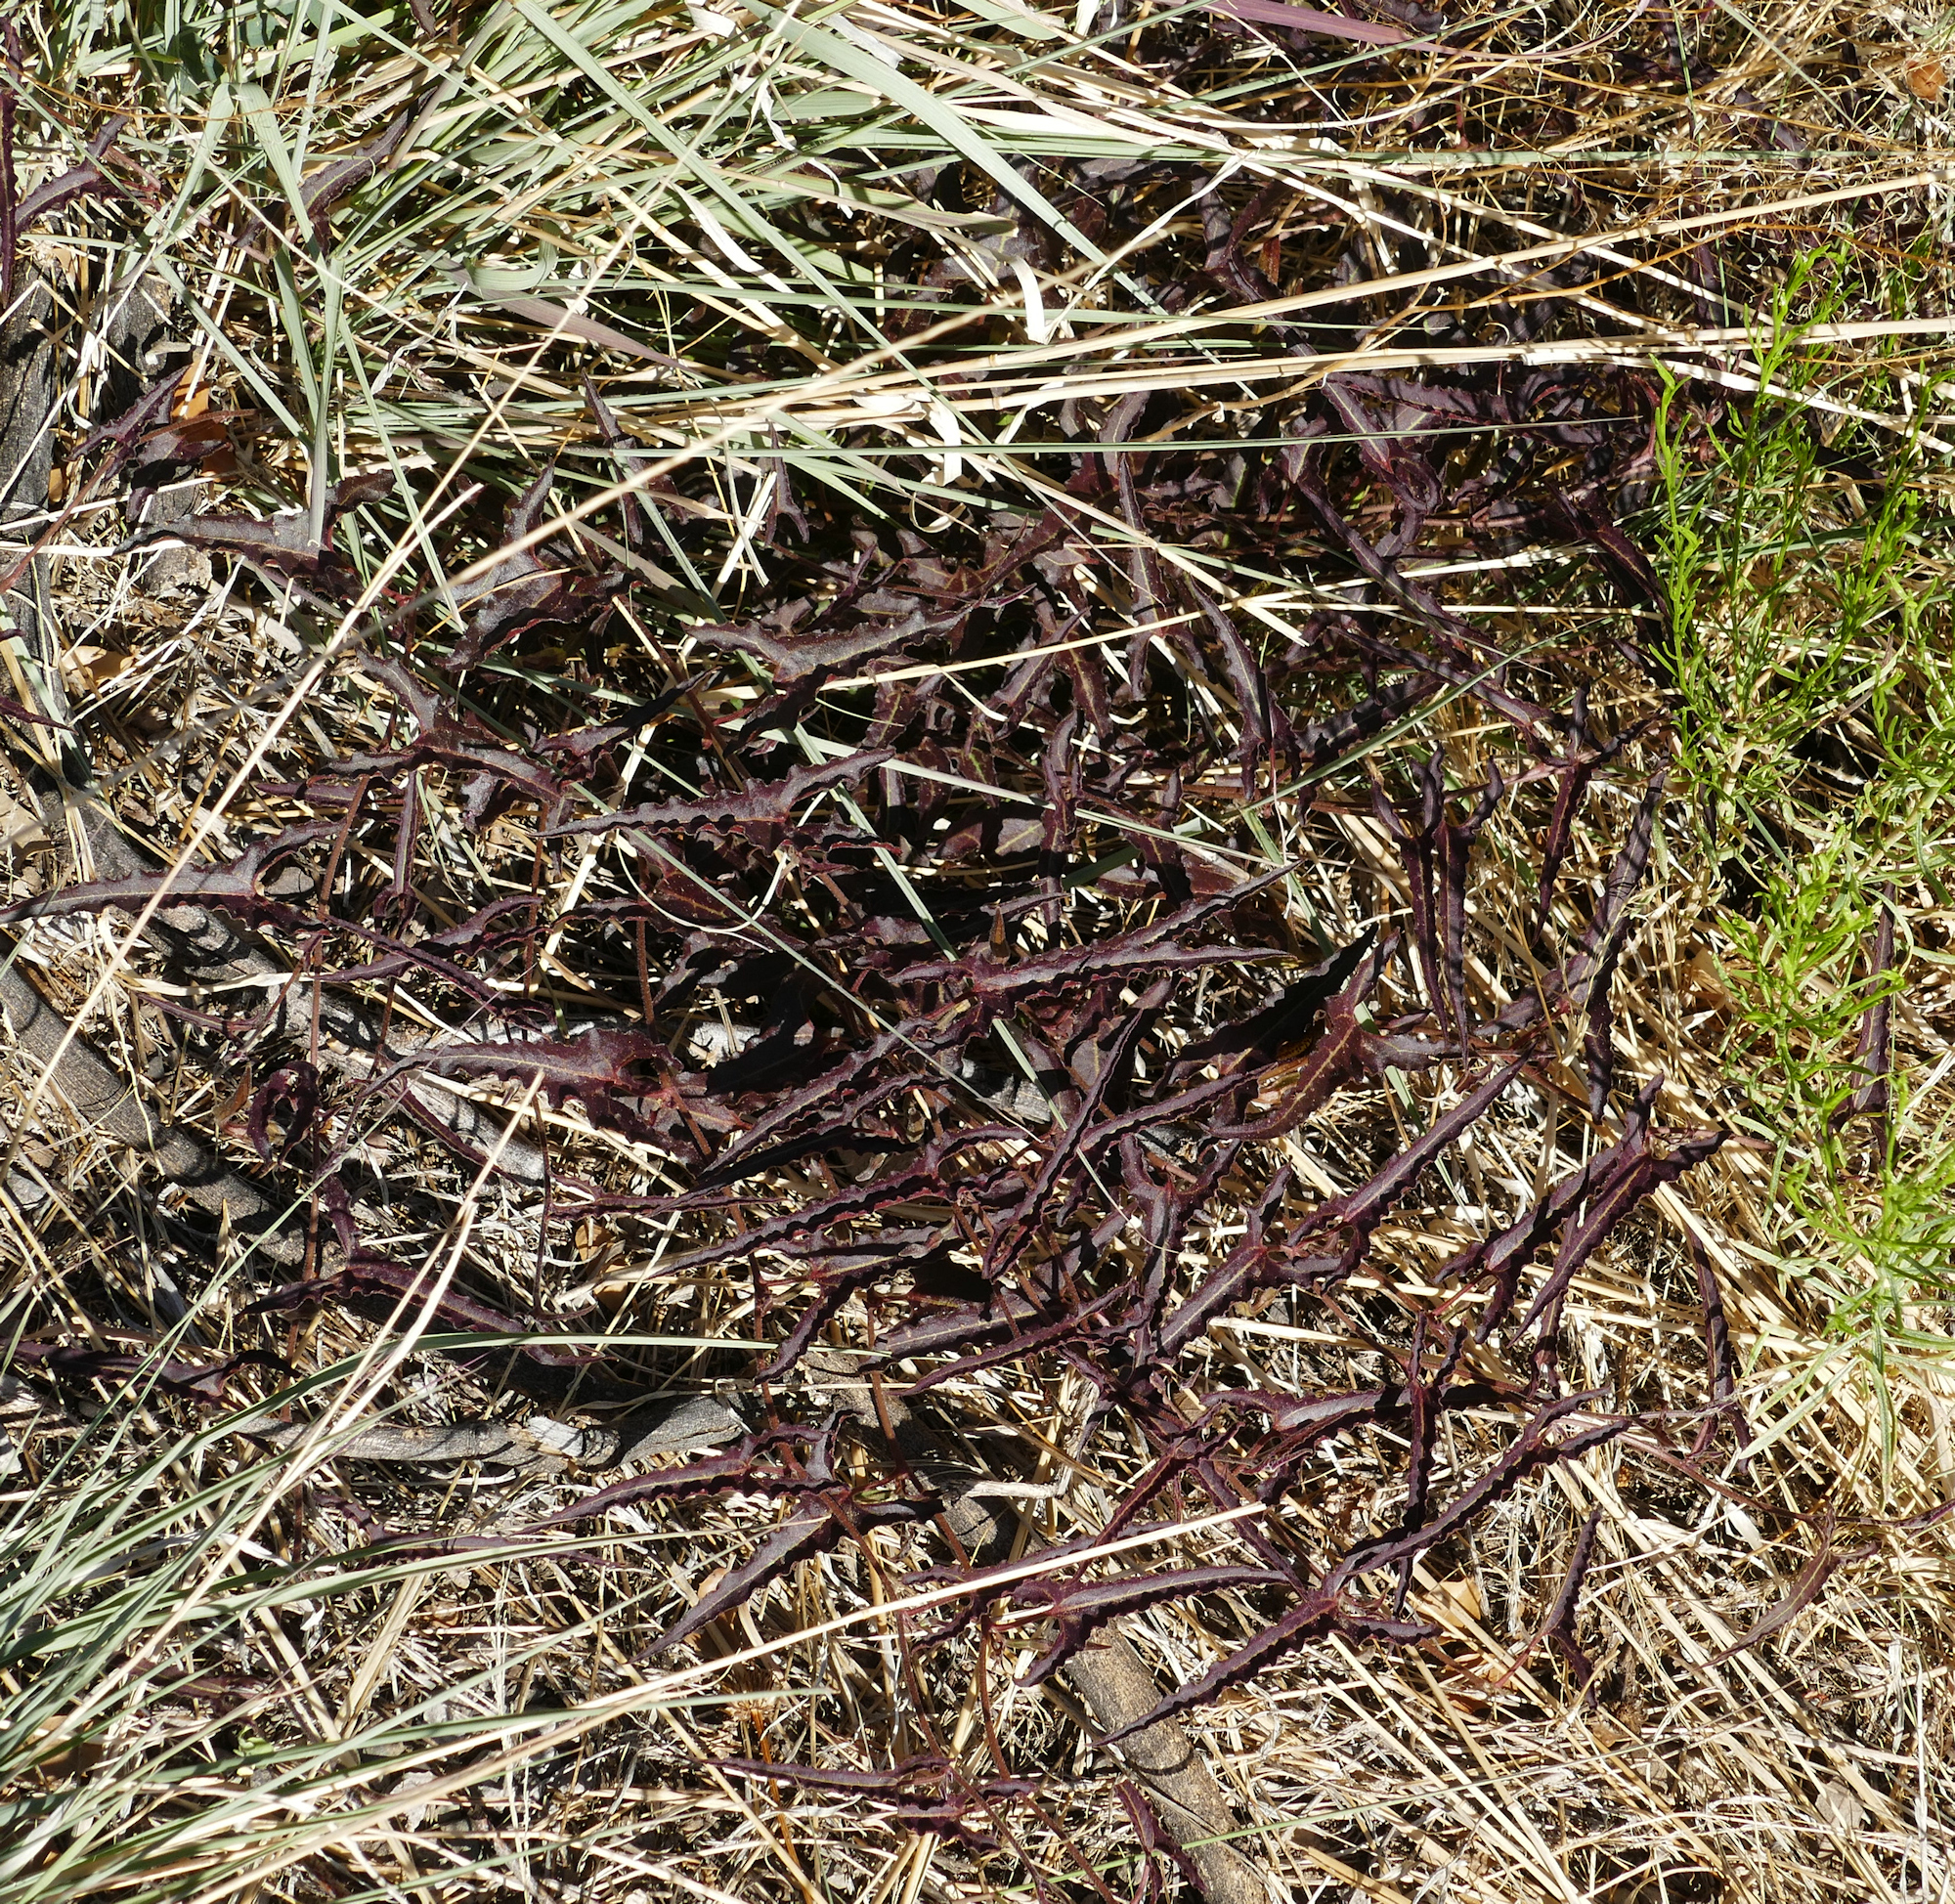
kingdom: Plantae
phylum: Tracheophyta
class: Magnoliopsida
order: Piperales
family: Aristolochiaceae
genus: Aristolochia
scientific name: Aristolochia watsonii
